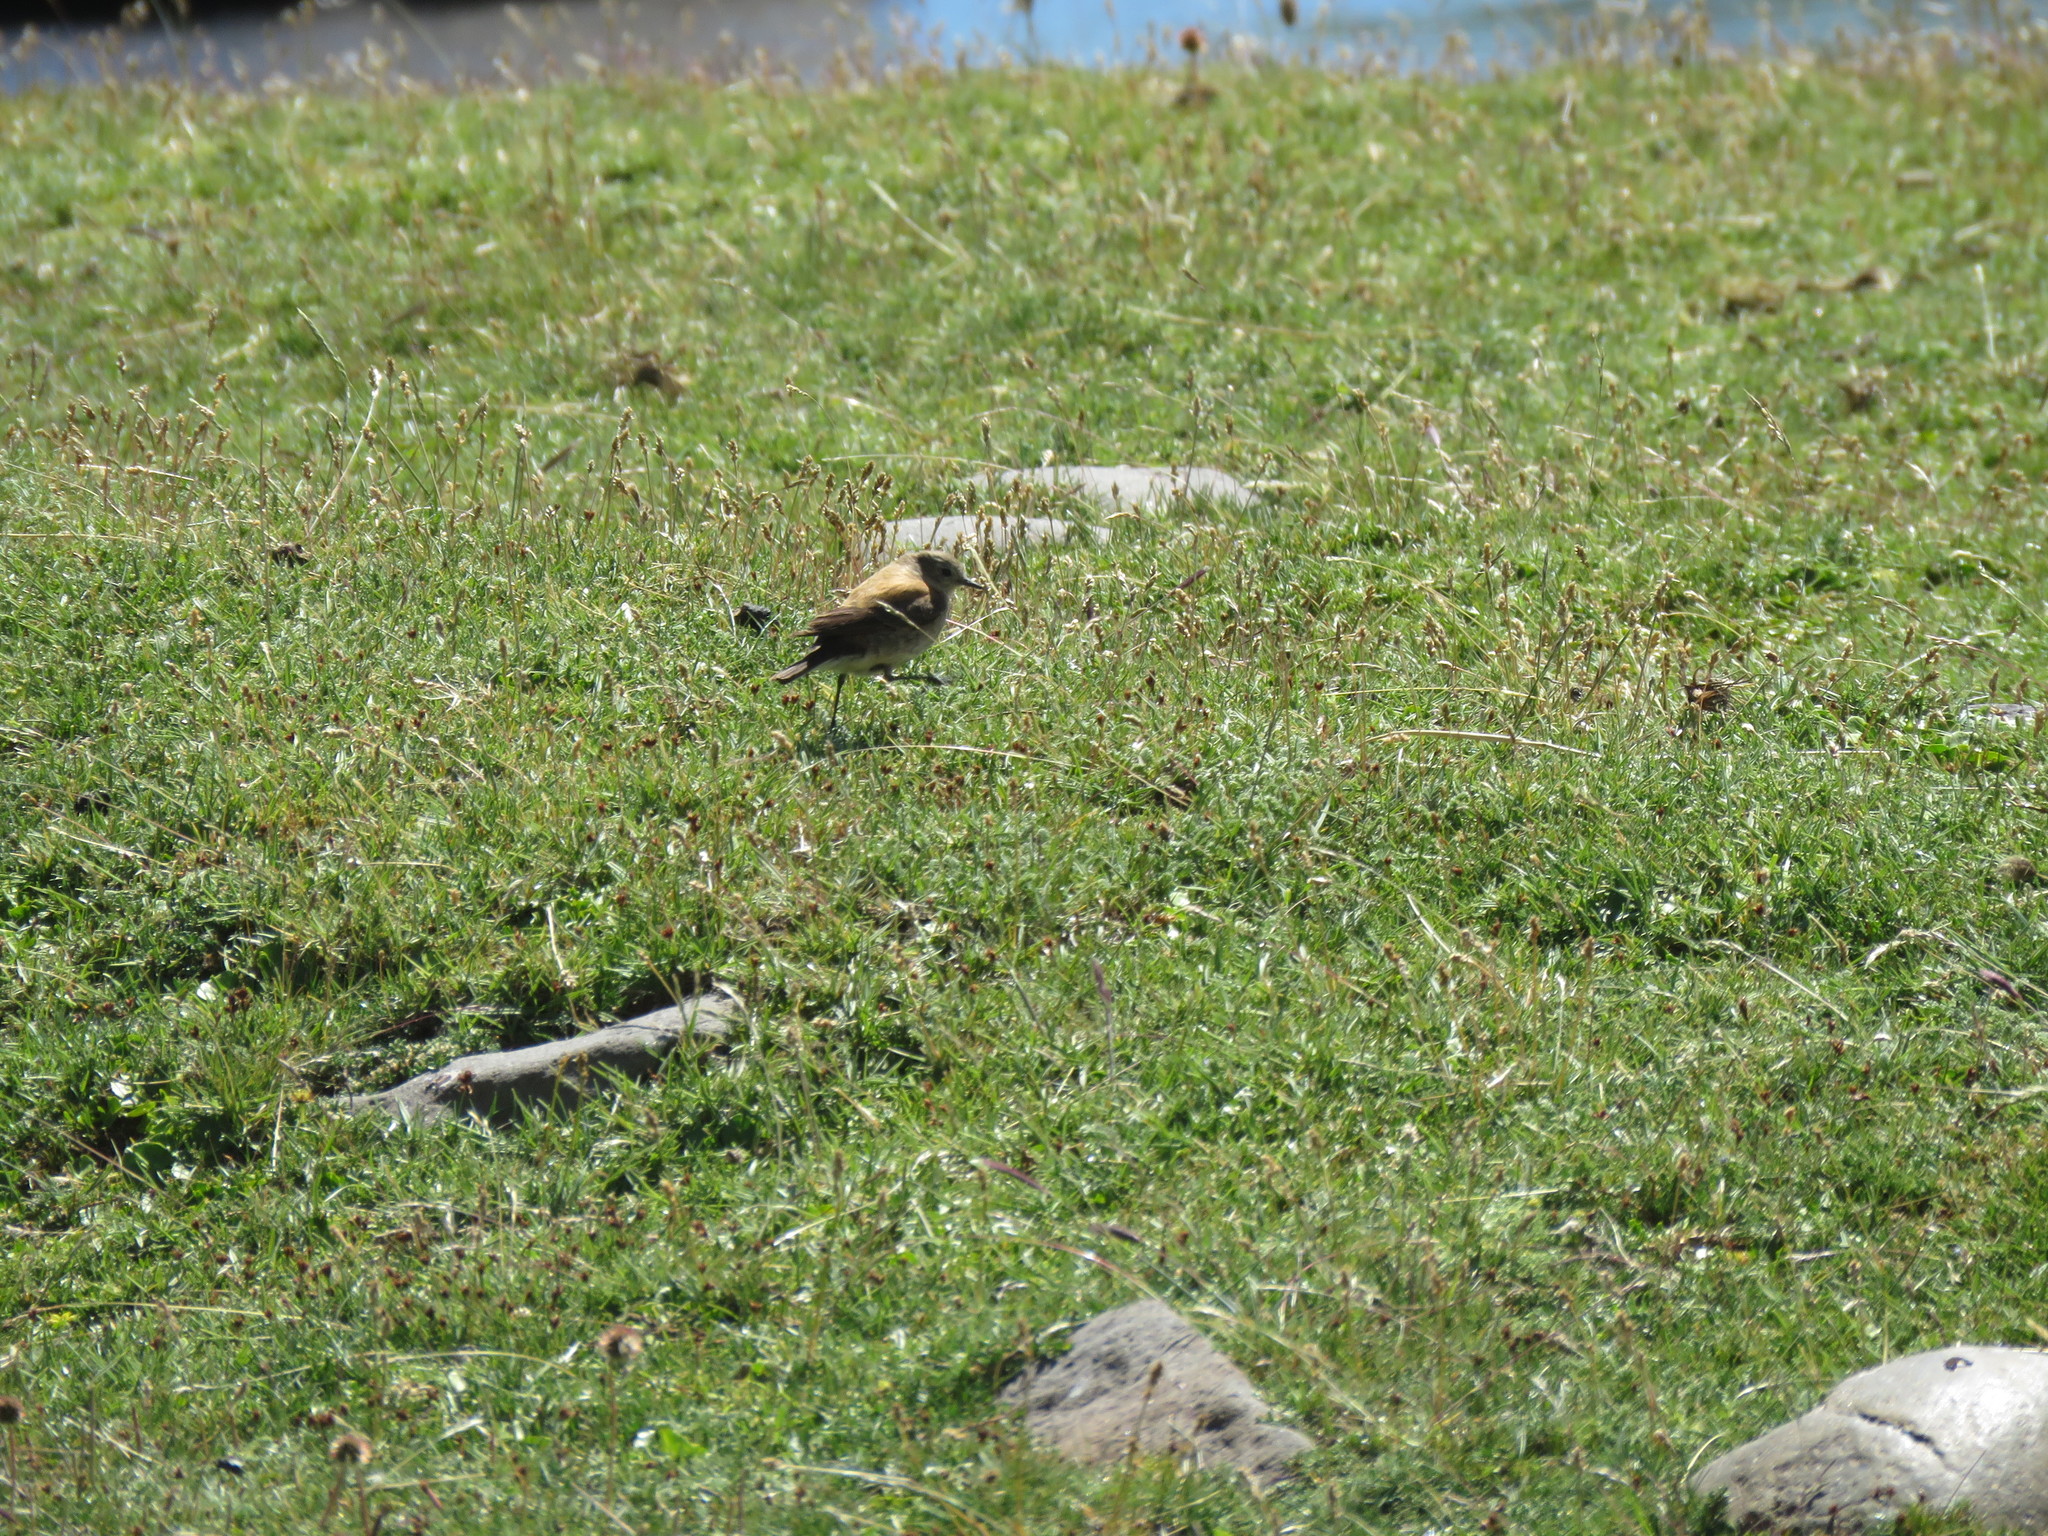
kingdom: Animalia
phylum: Chordata
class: Aves
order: Passeriformes
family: Tyrannidae
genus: Lessonia
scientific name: Lessonia rufa
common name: Austral negrito
